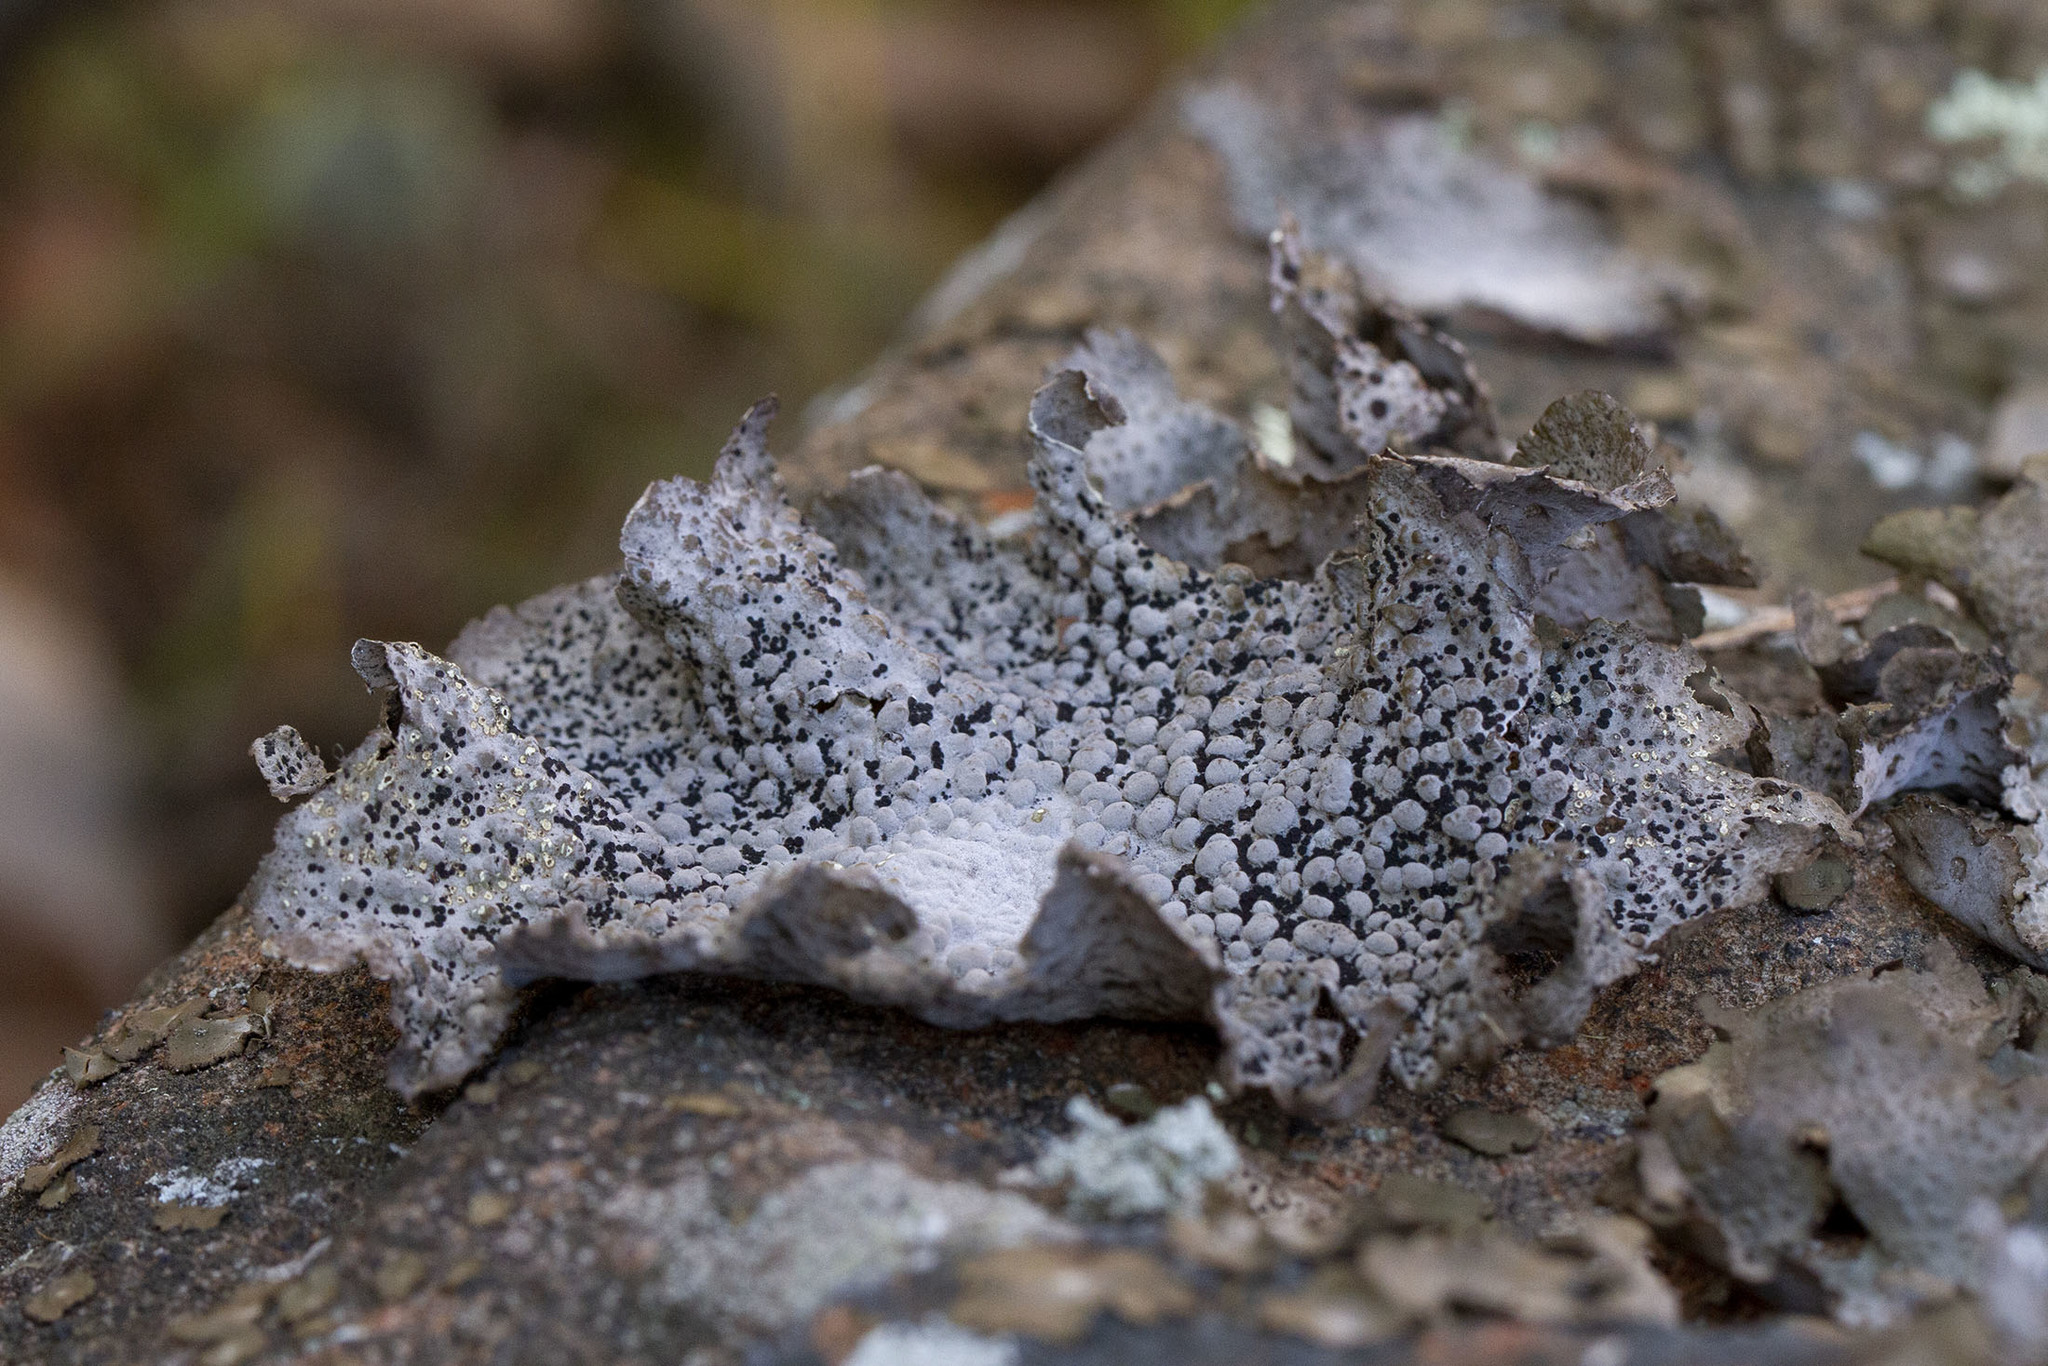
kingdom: Fungi
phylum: Ascomycota
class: Lecanoromycetes
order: Umbilicariales
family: Umbilicariaceae
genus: Lasallia
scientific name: Lasallia papulosa
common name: Common toadskin lichen
